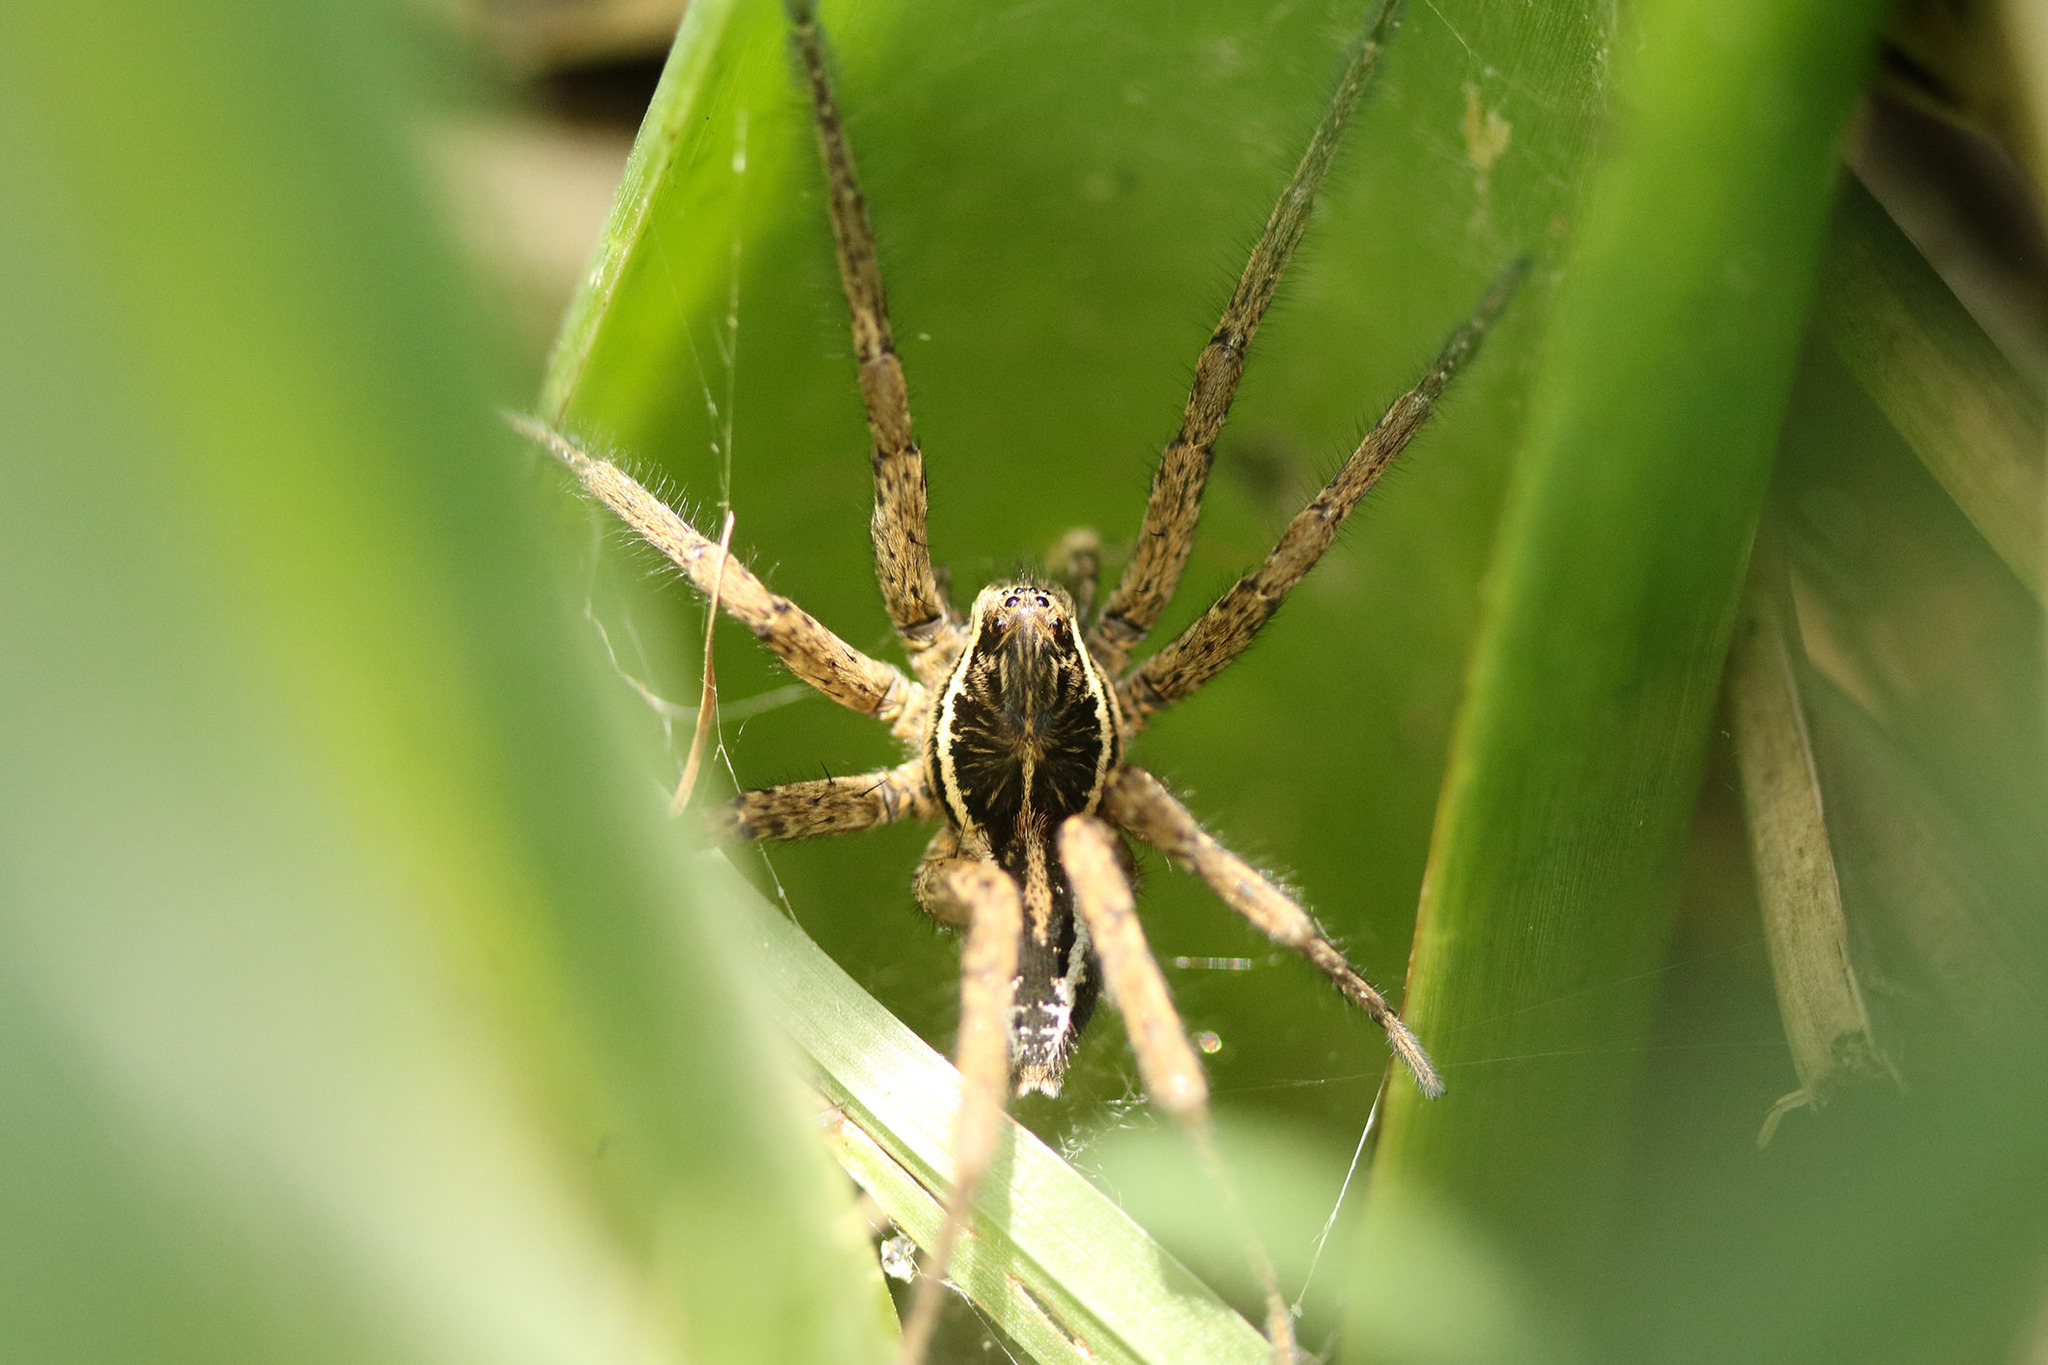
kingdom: Animalia
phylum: Arthropoda
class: Arachnida
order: Araneae
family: Lycosidae
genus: Aglaoctenus
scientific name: Aglaoctenus oblongus
